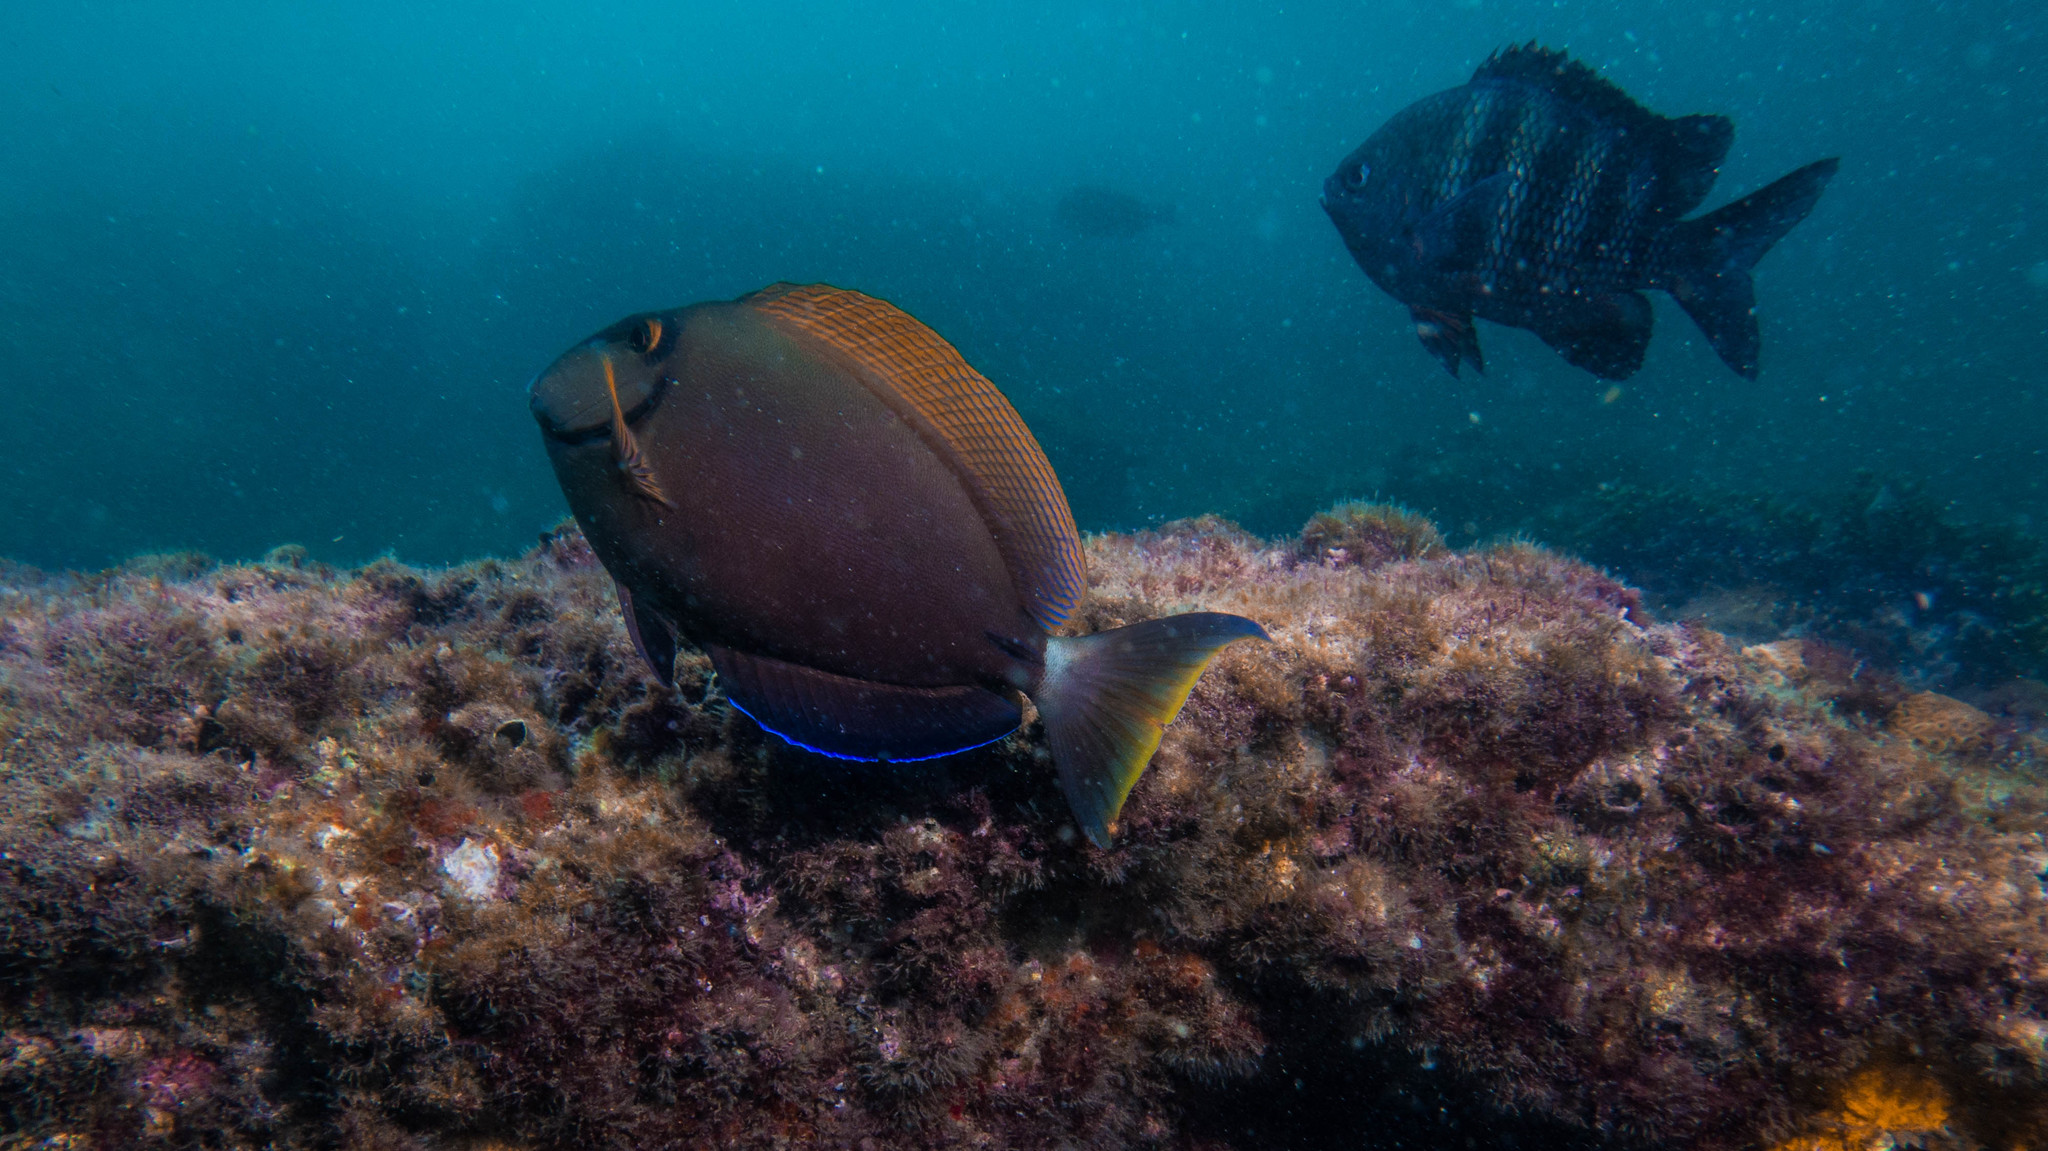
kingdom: Animalia
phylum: Chordata
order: Perciformes
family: Acanthuridae
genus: Acanthurus
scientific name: Acanthurus bahianus
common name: Ocean surgeon
